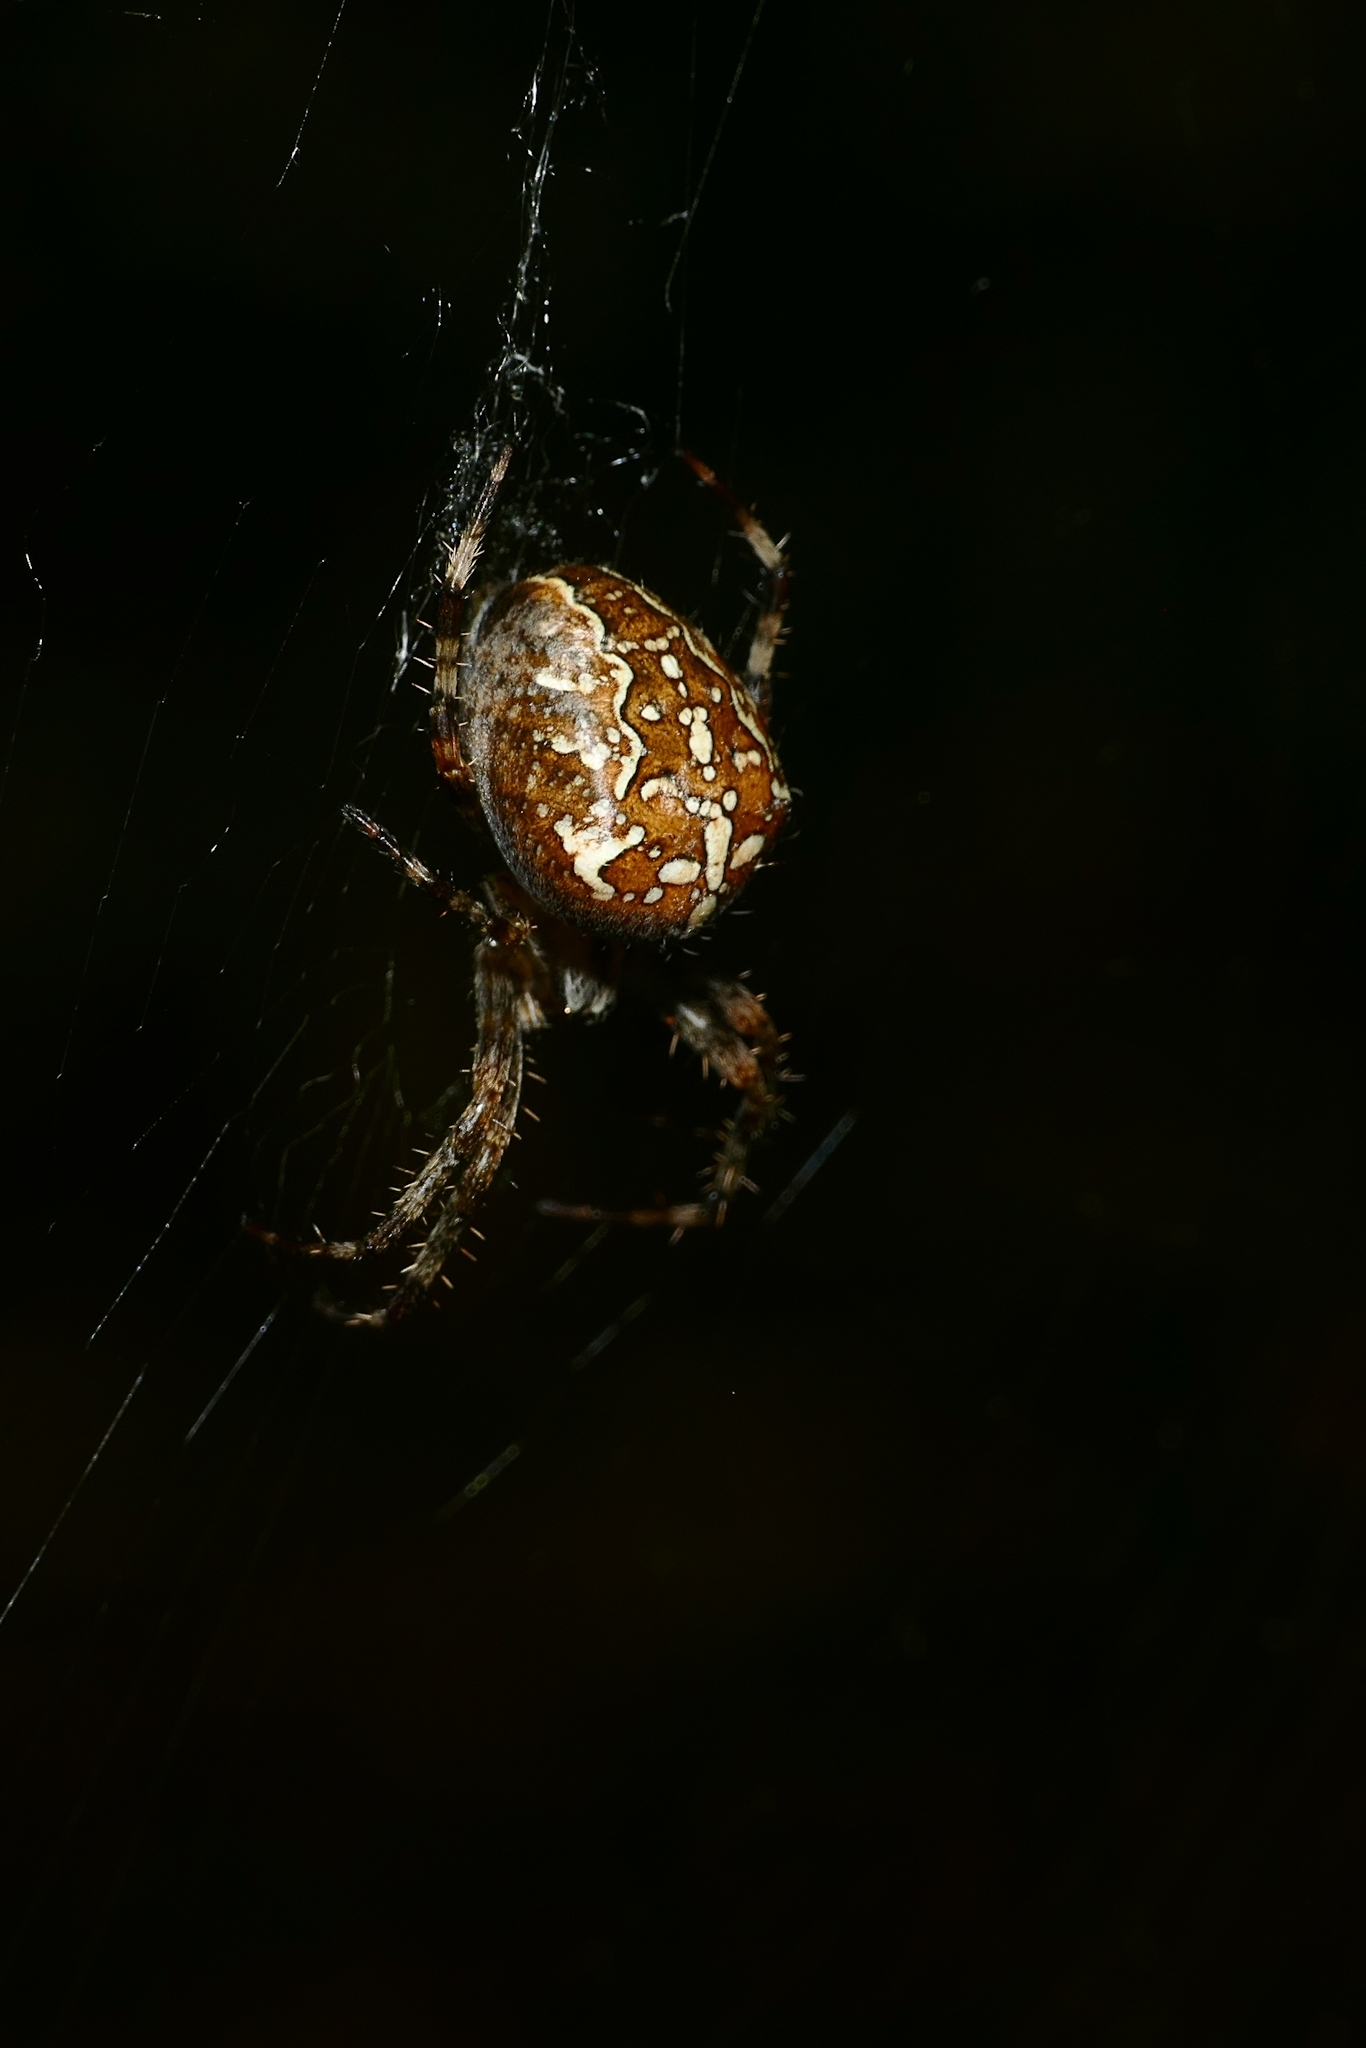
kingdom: Animalia
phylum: Arthropoda
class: Arachnida
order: Araneae
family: Araneidae
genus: Araneus
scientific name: Araneus diadematus
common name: Cross orbweaver
